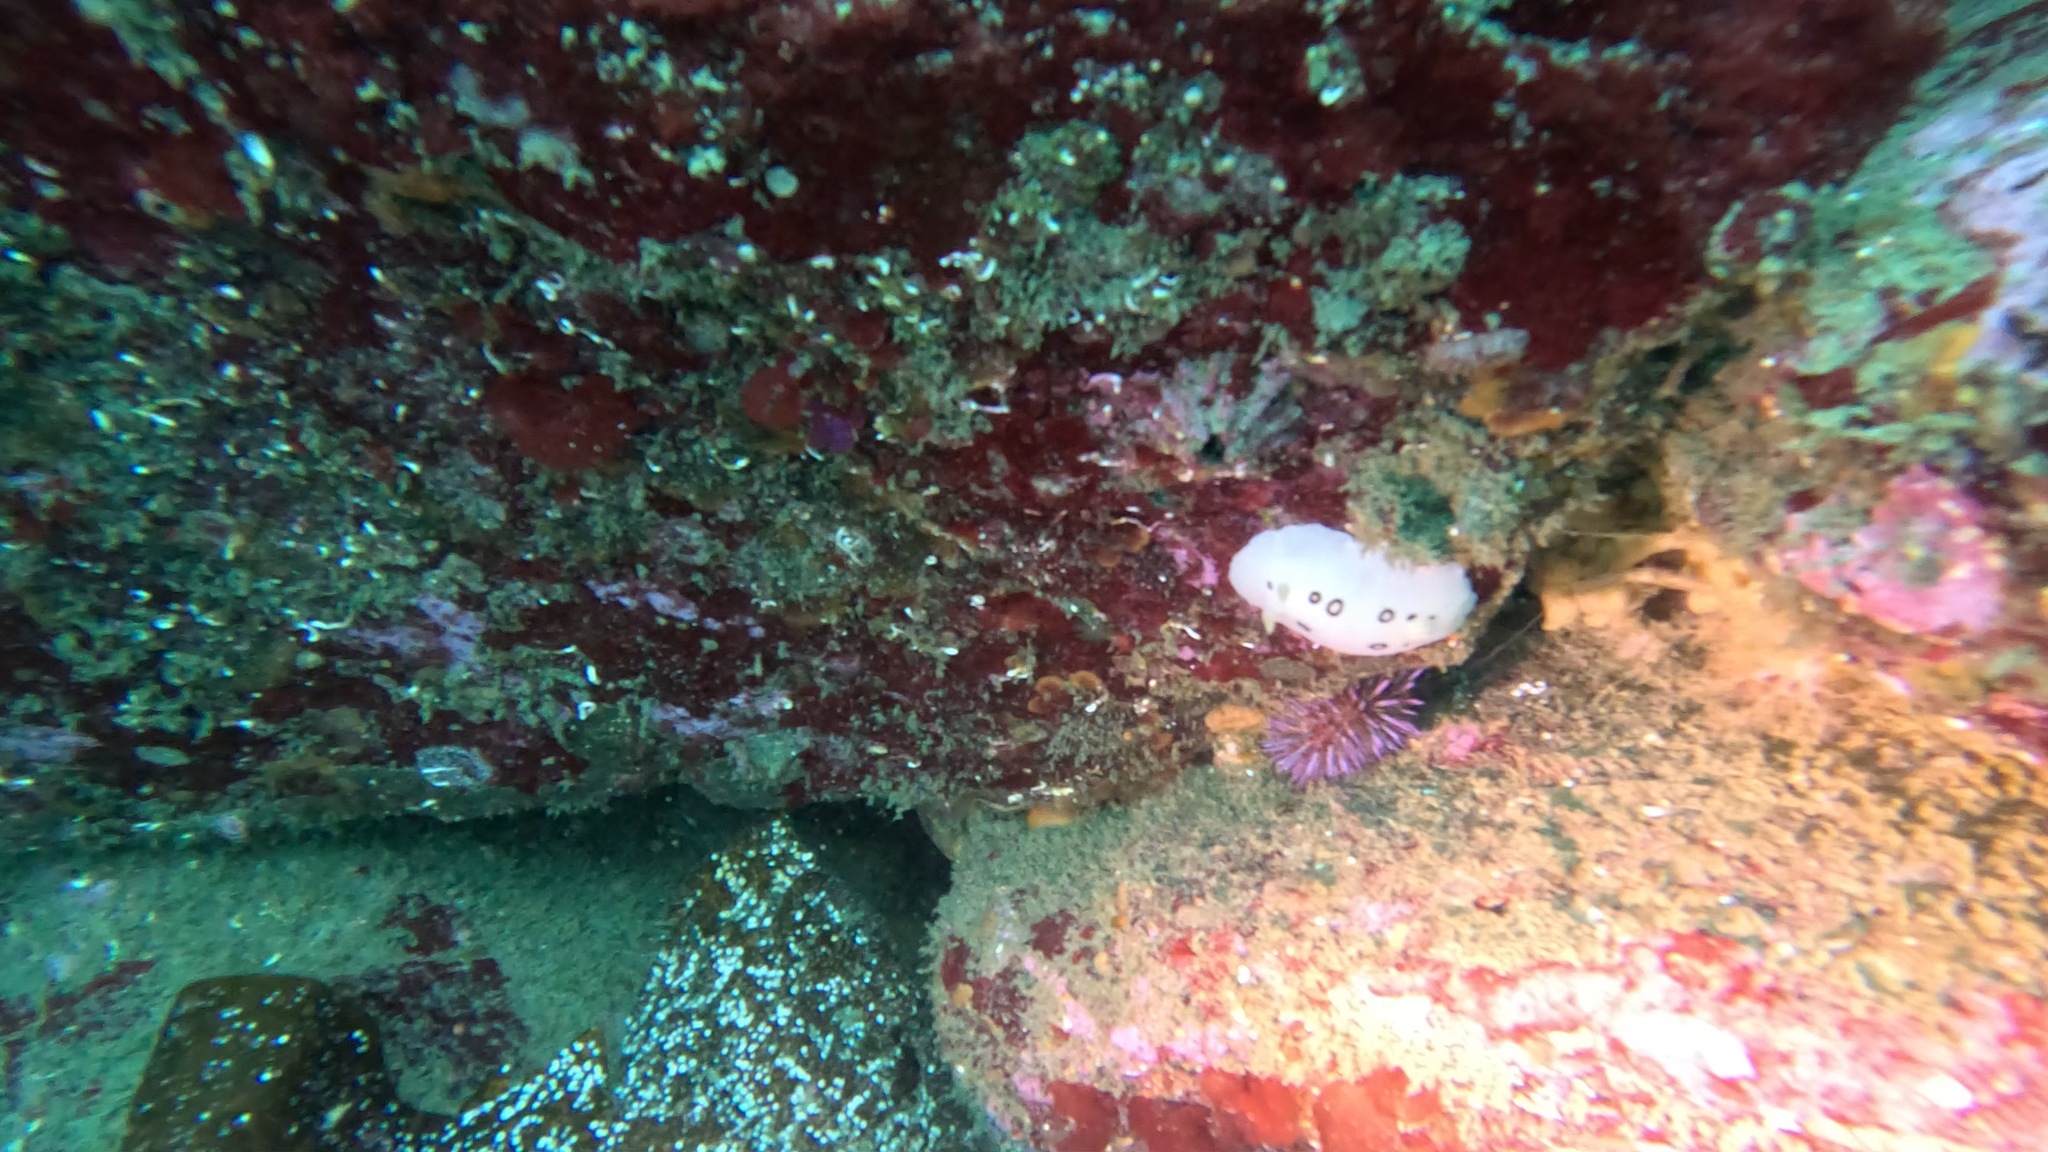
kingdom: Animalia
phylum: Mollusca
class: Gastropoda
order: Nudibranchia
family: Discodorididae
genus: Diaulula
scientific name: Diaulula sandiegensis
